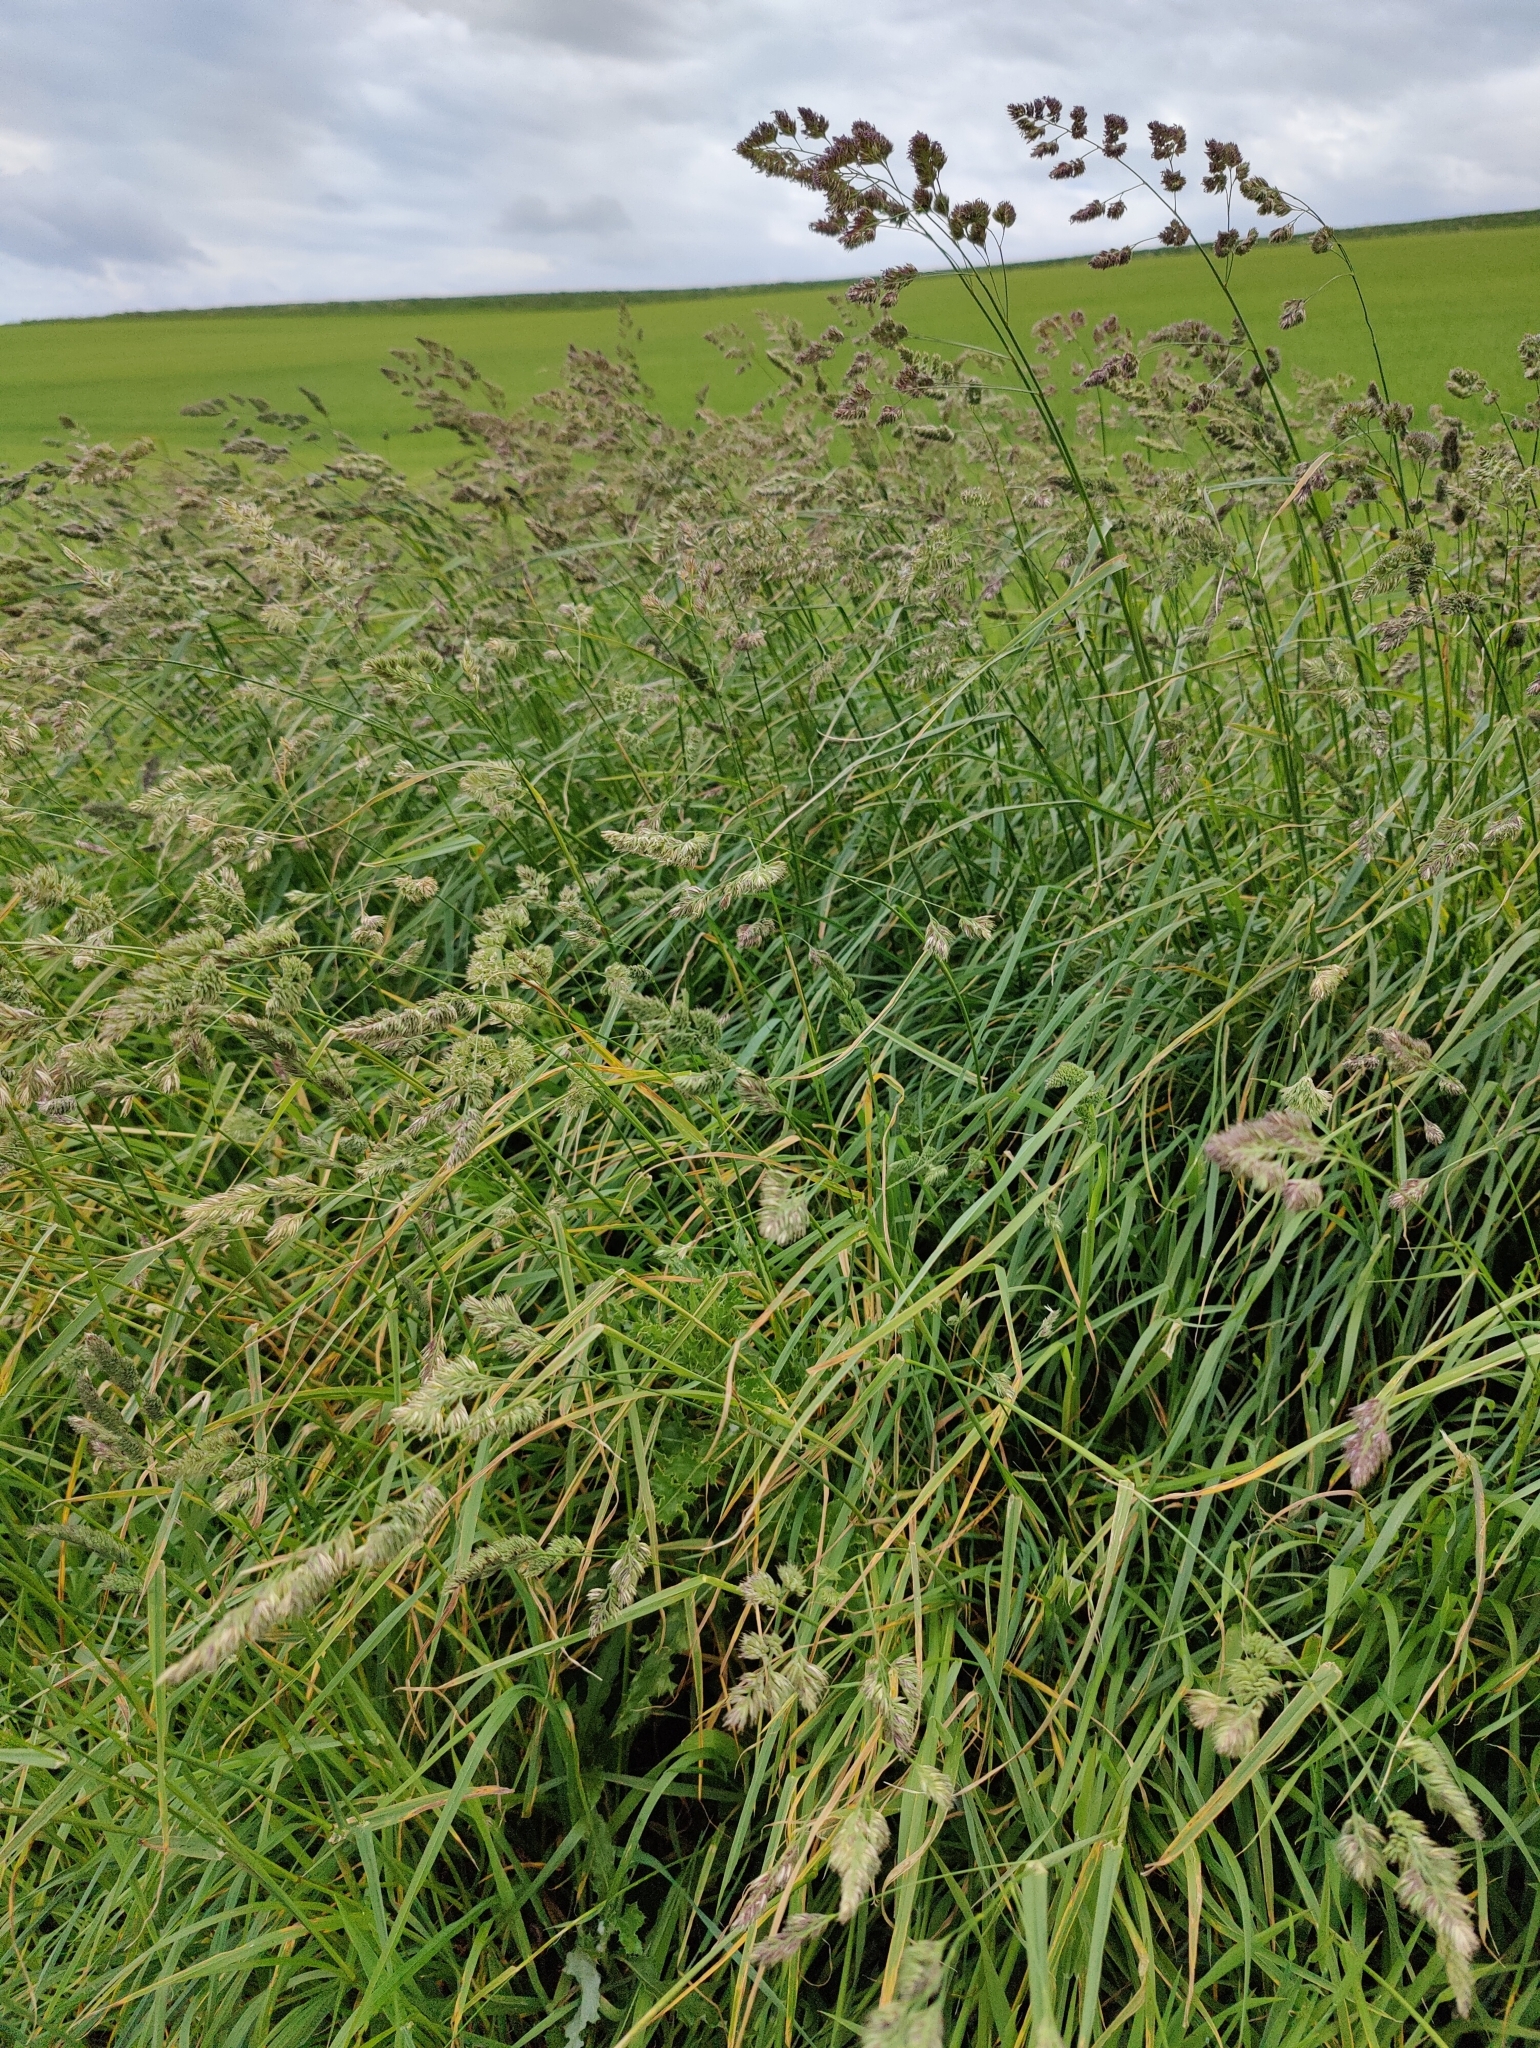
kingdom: Plantae
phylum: Tracheophyta
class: Liliopsida
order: Poales
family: Poaceae
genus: Dactylis
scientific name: Dactylis glomerata
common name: Orchardgrass
